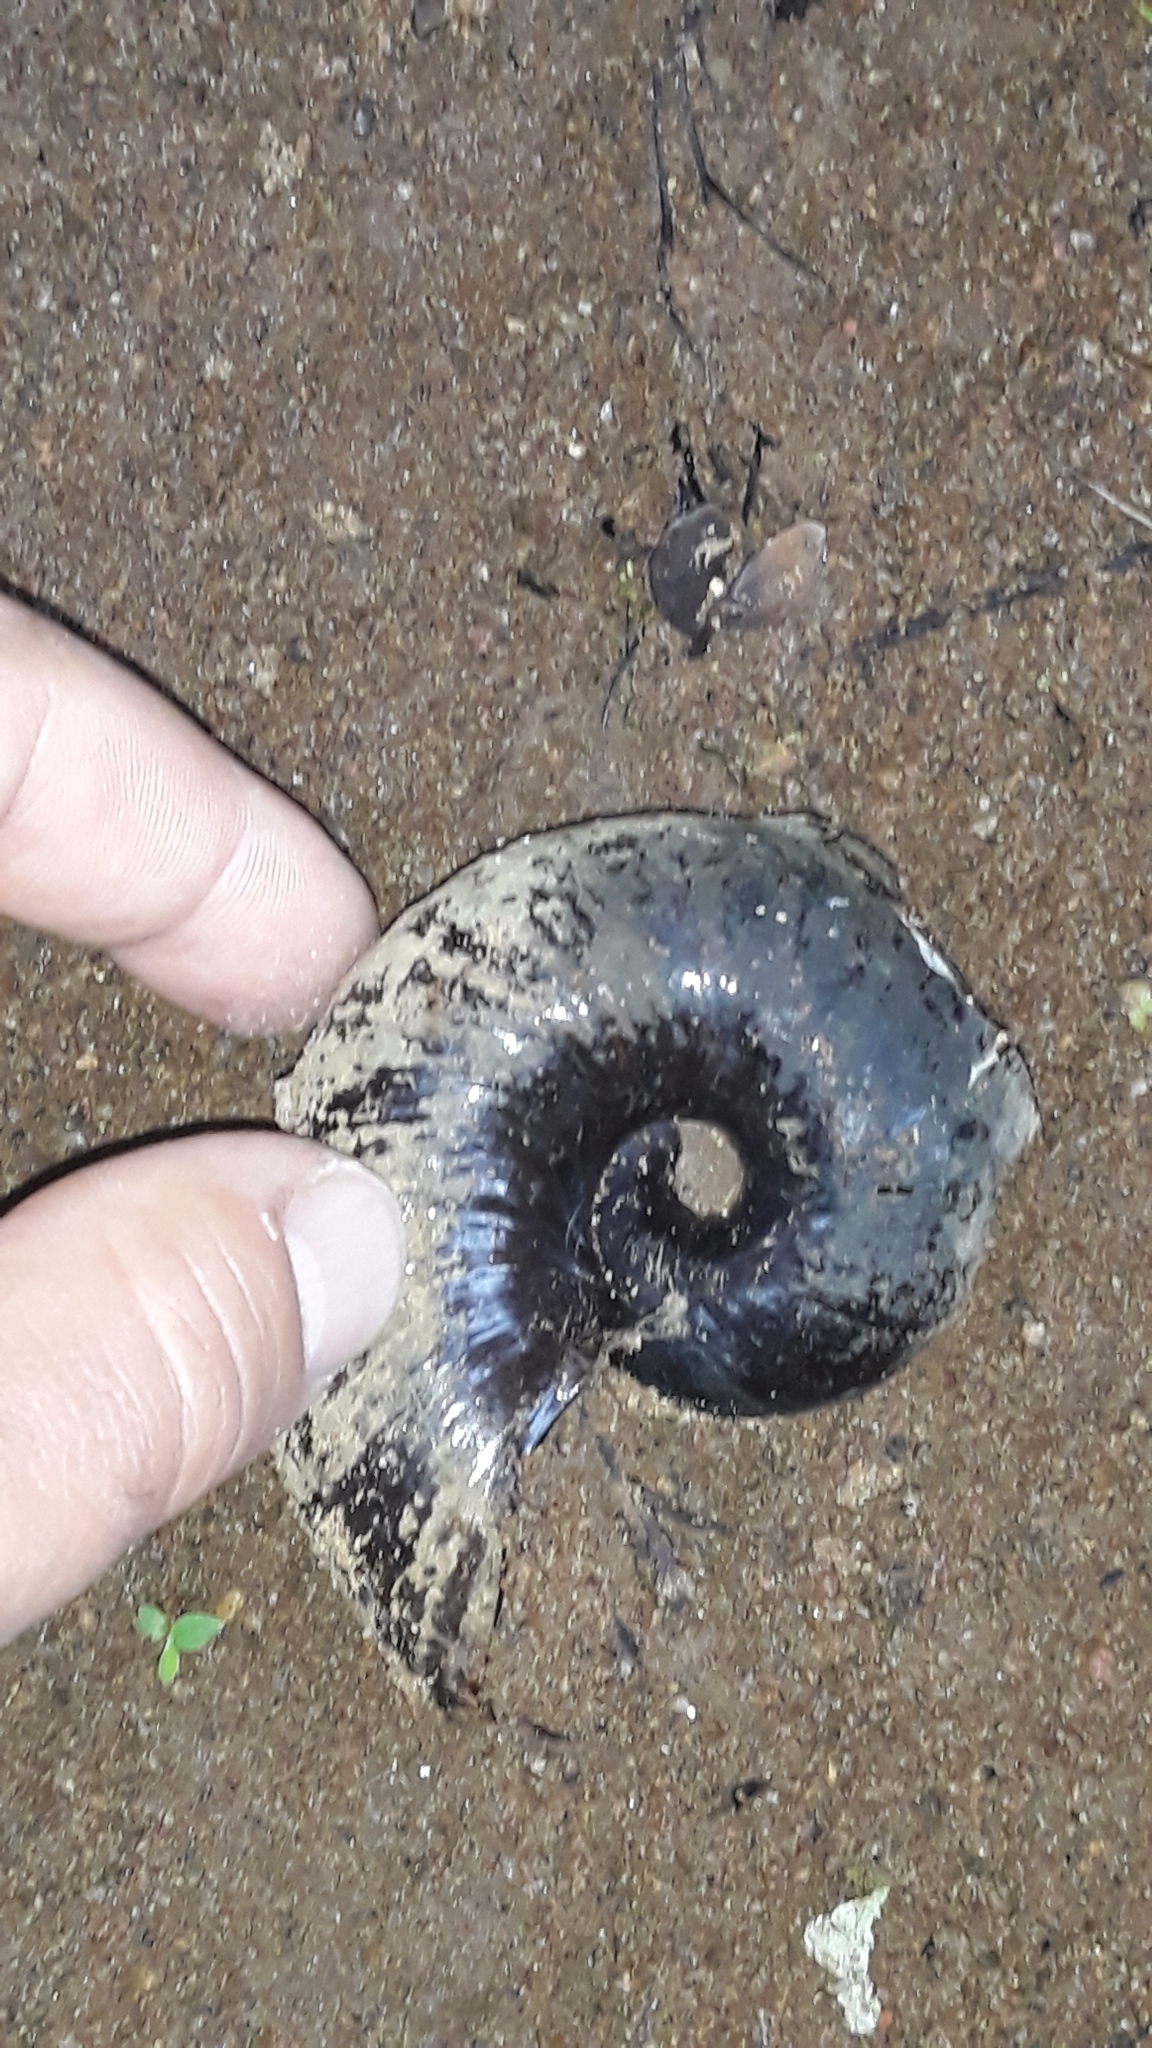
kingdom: Animalia
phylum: Mollusca
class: Gastropoda
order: Stylommatophora
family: Rhytididae
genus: Paryphanta
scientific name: Paryphanta busbyi
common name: Kauri snail
